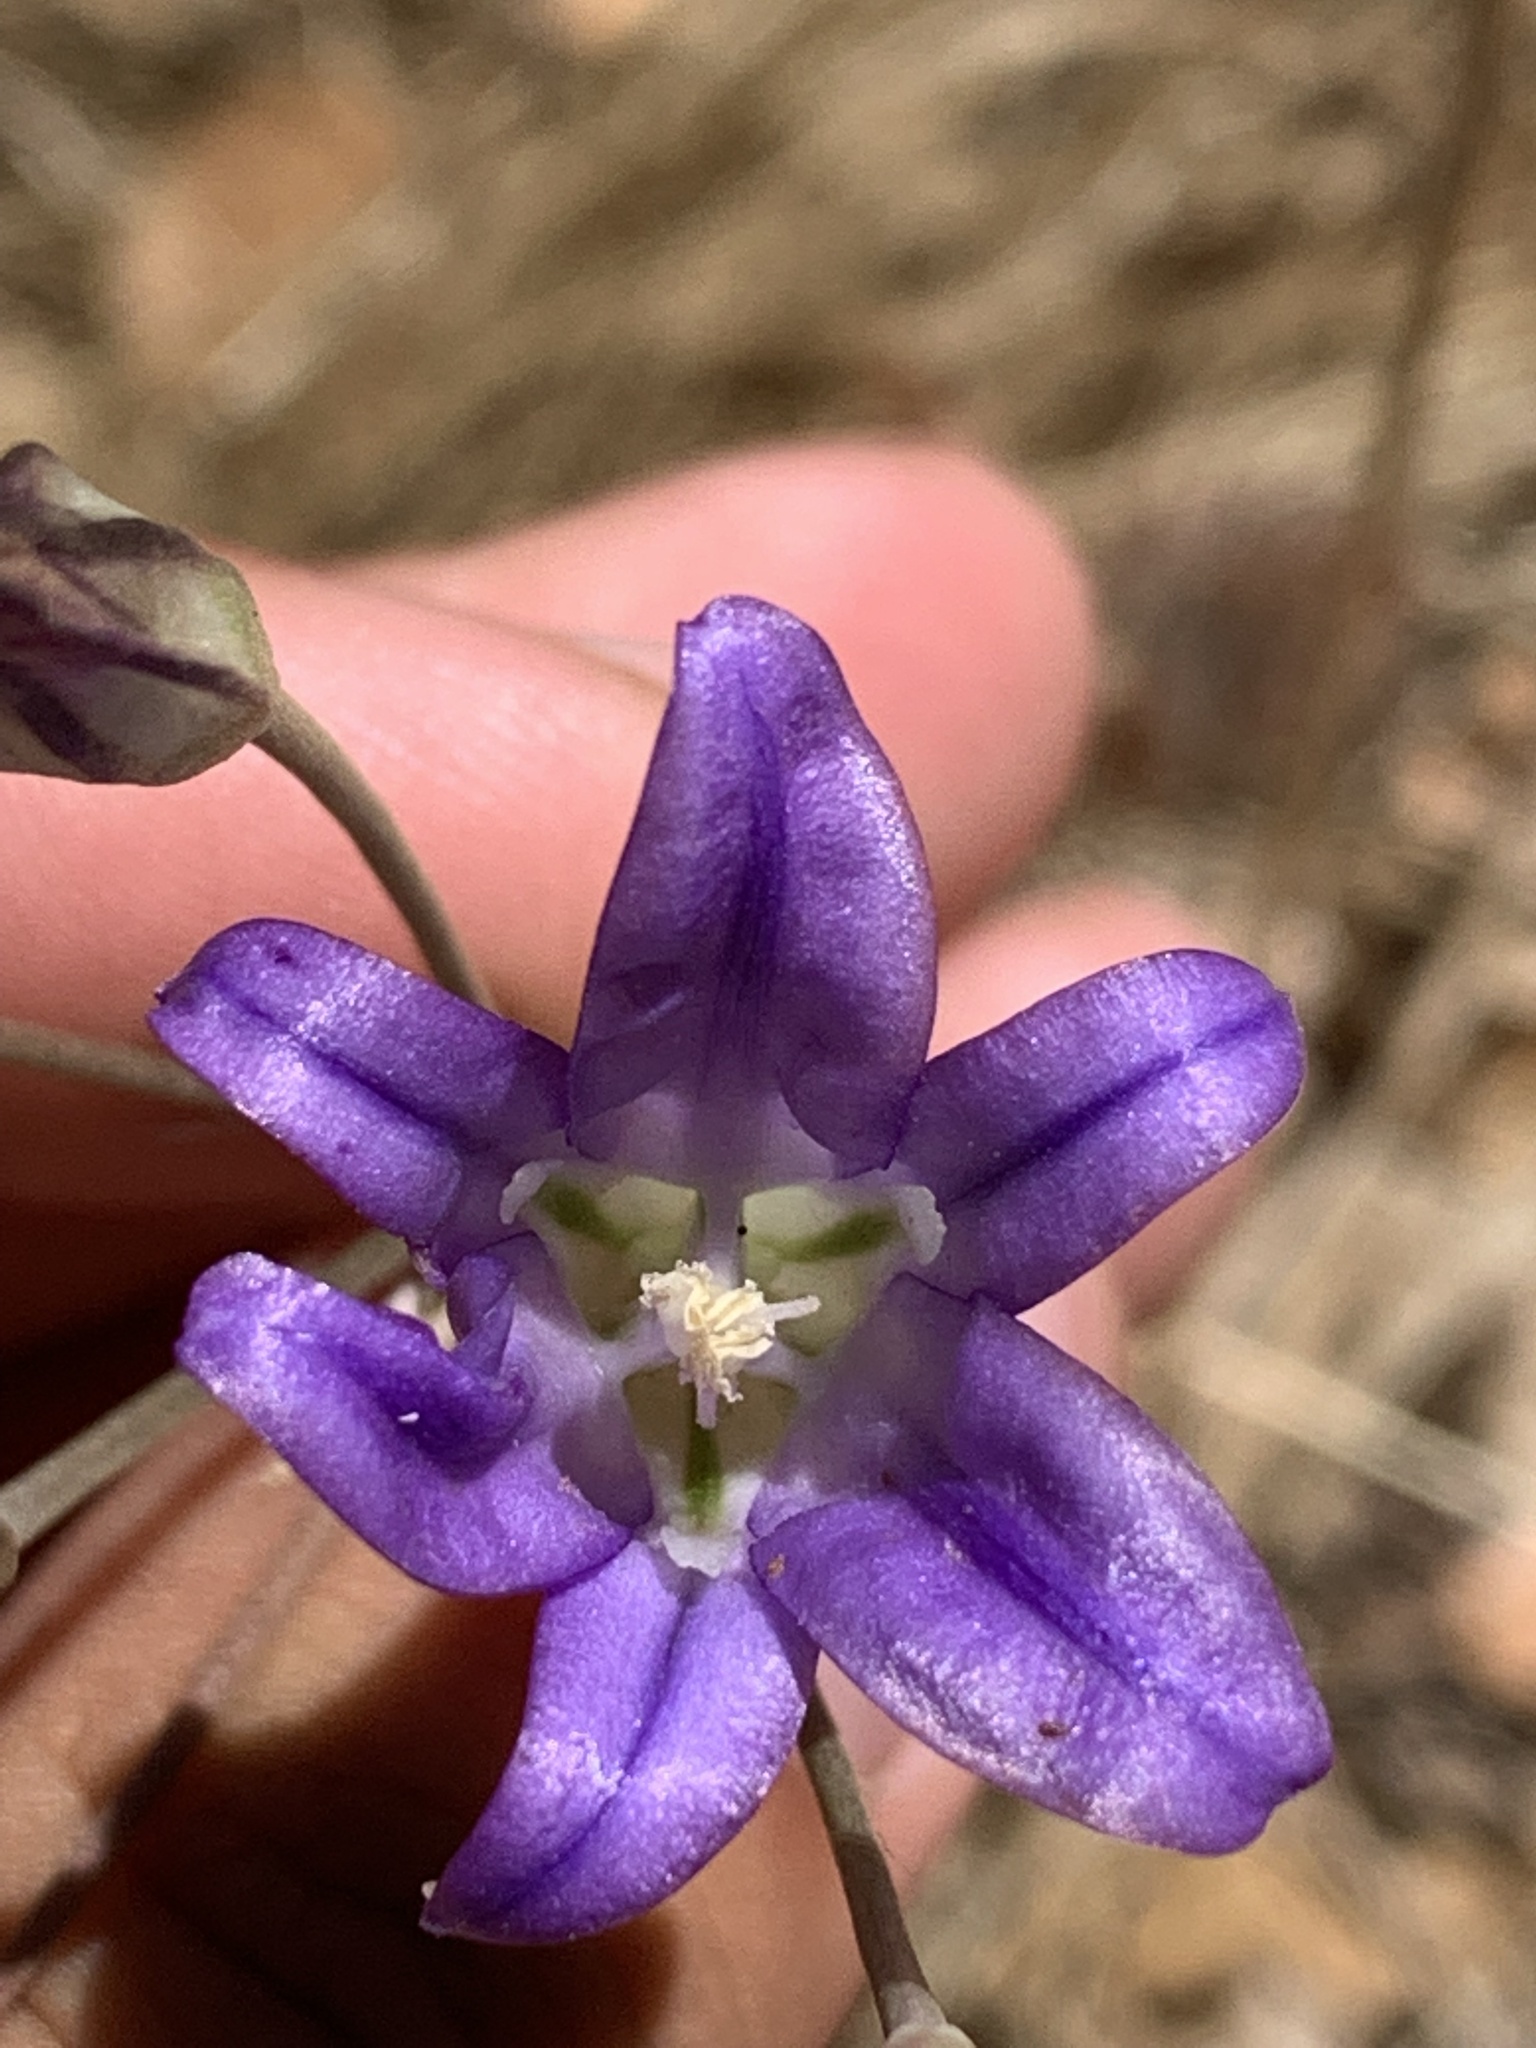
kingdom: Plantae
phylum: Tracheophyta
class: Liliopsida
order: Asparagales
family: Asparagaceae
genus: Brodiaea
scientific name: Brodiaea elegans
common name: Elegant cluster-lily
